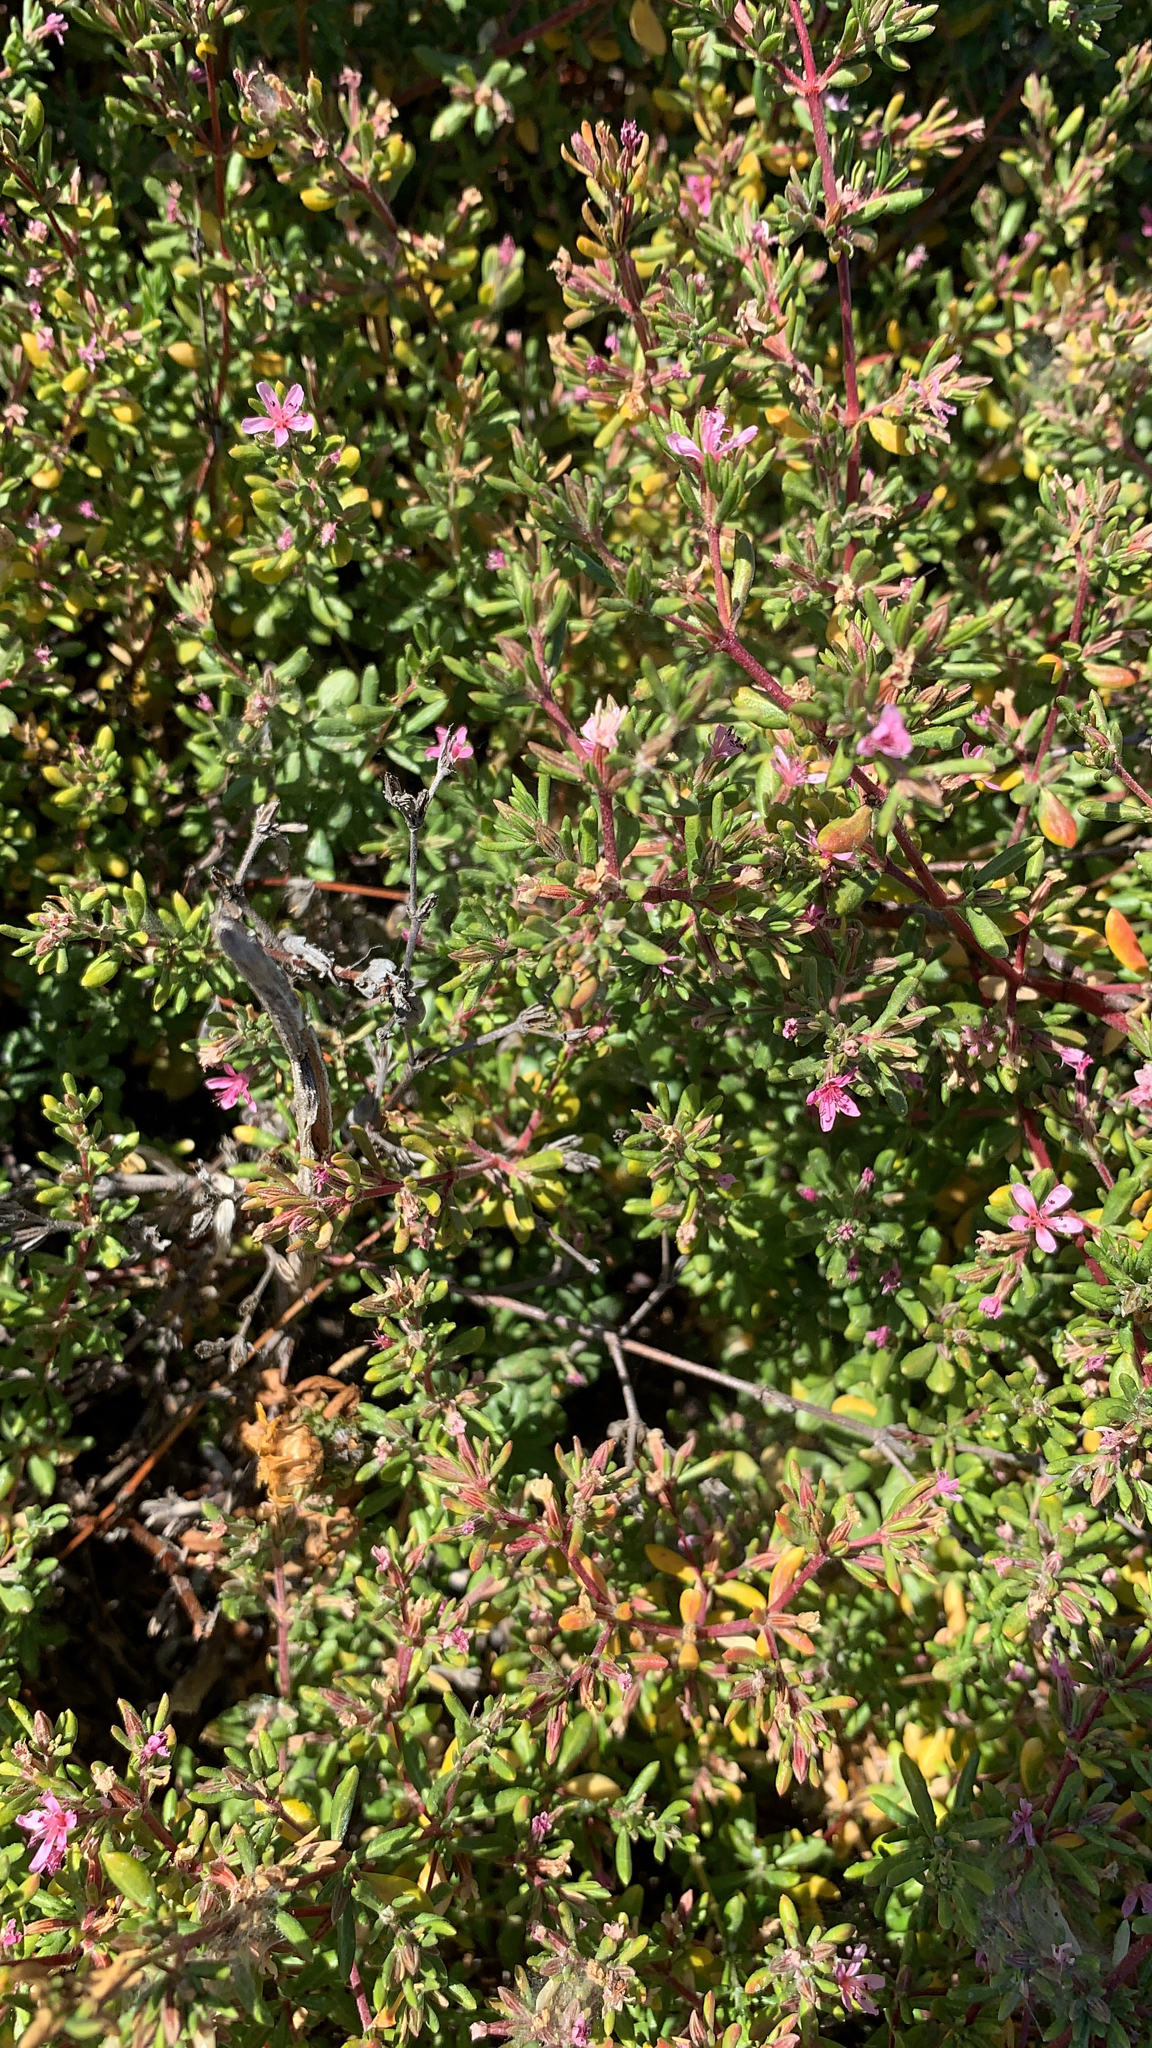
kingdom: Plantae
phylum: Tracheophyta
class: Magnoliopsida
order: Caryophyllales
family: Frankeniaceae
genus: Frankenia
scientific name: Frankenia salina
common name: Alkali seaheath
